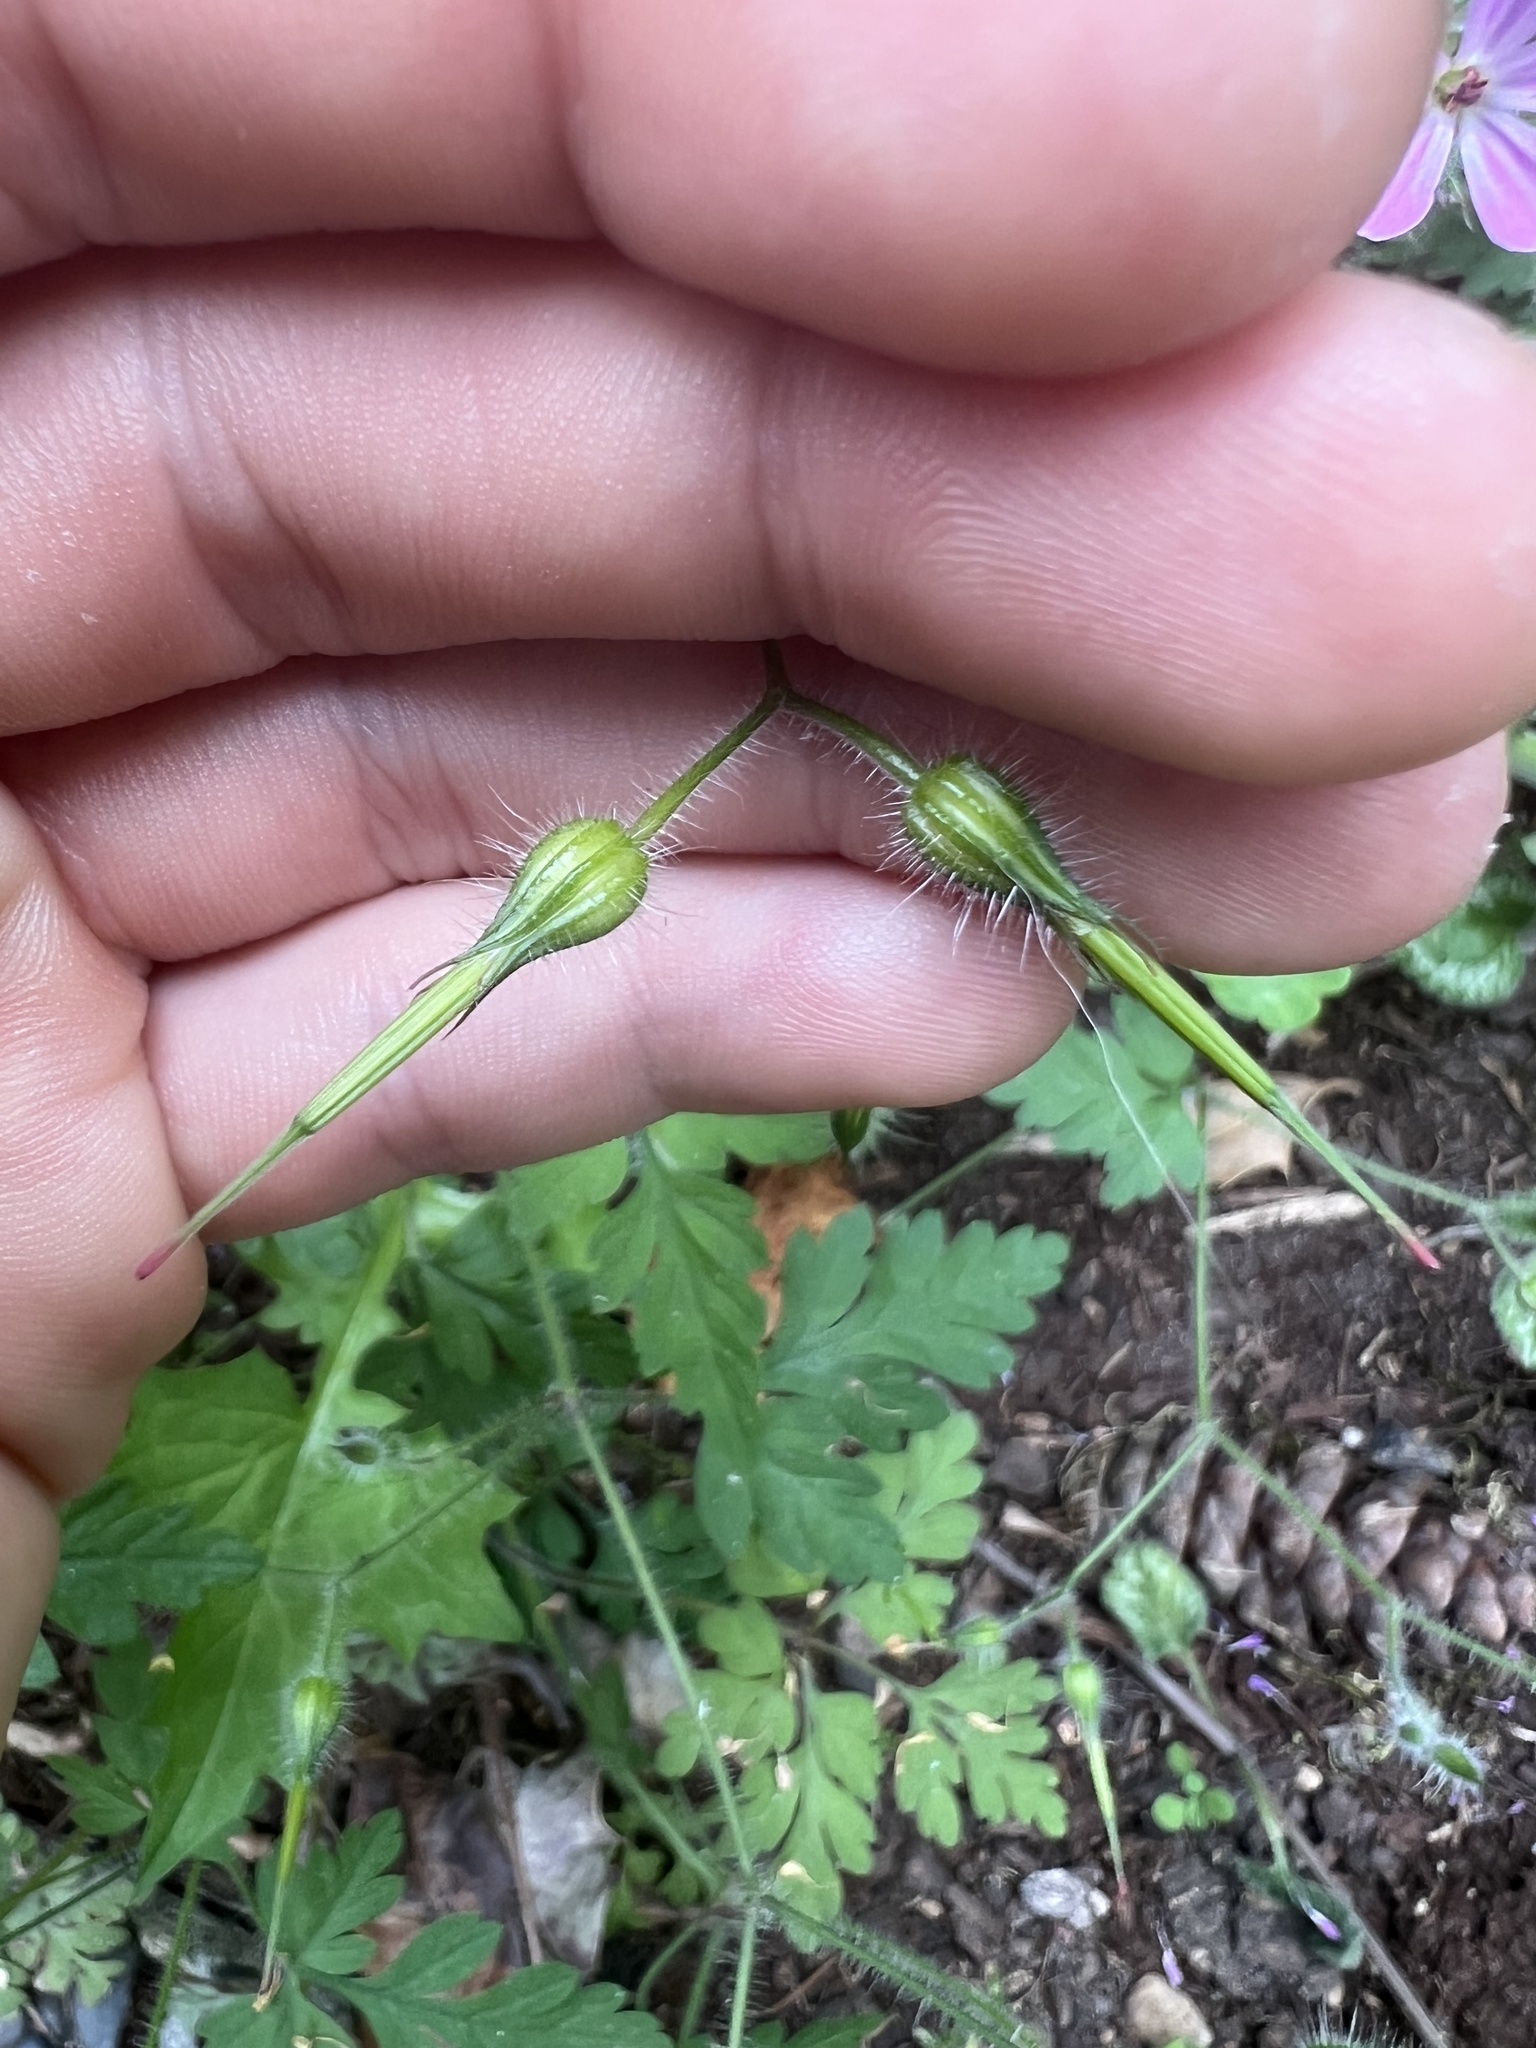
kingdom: Plantae
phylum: Tracheophyta
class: Magnoliopsida
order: Geraniales
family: Geraniaceae
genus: Geranium
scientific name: Geranium robertianum
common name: Herb-robert
